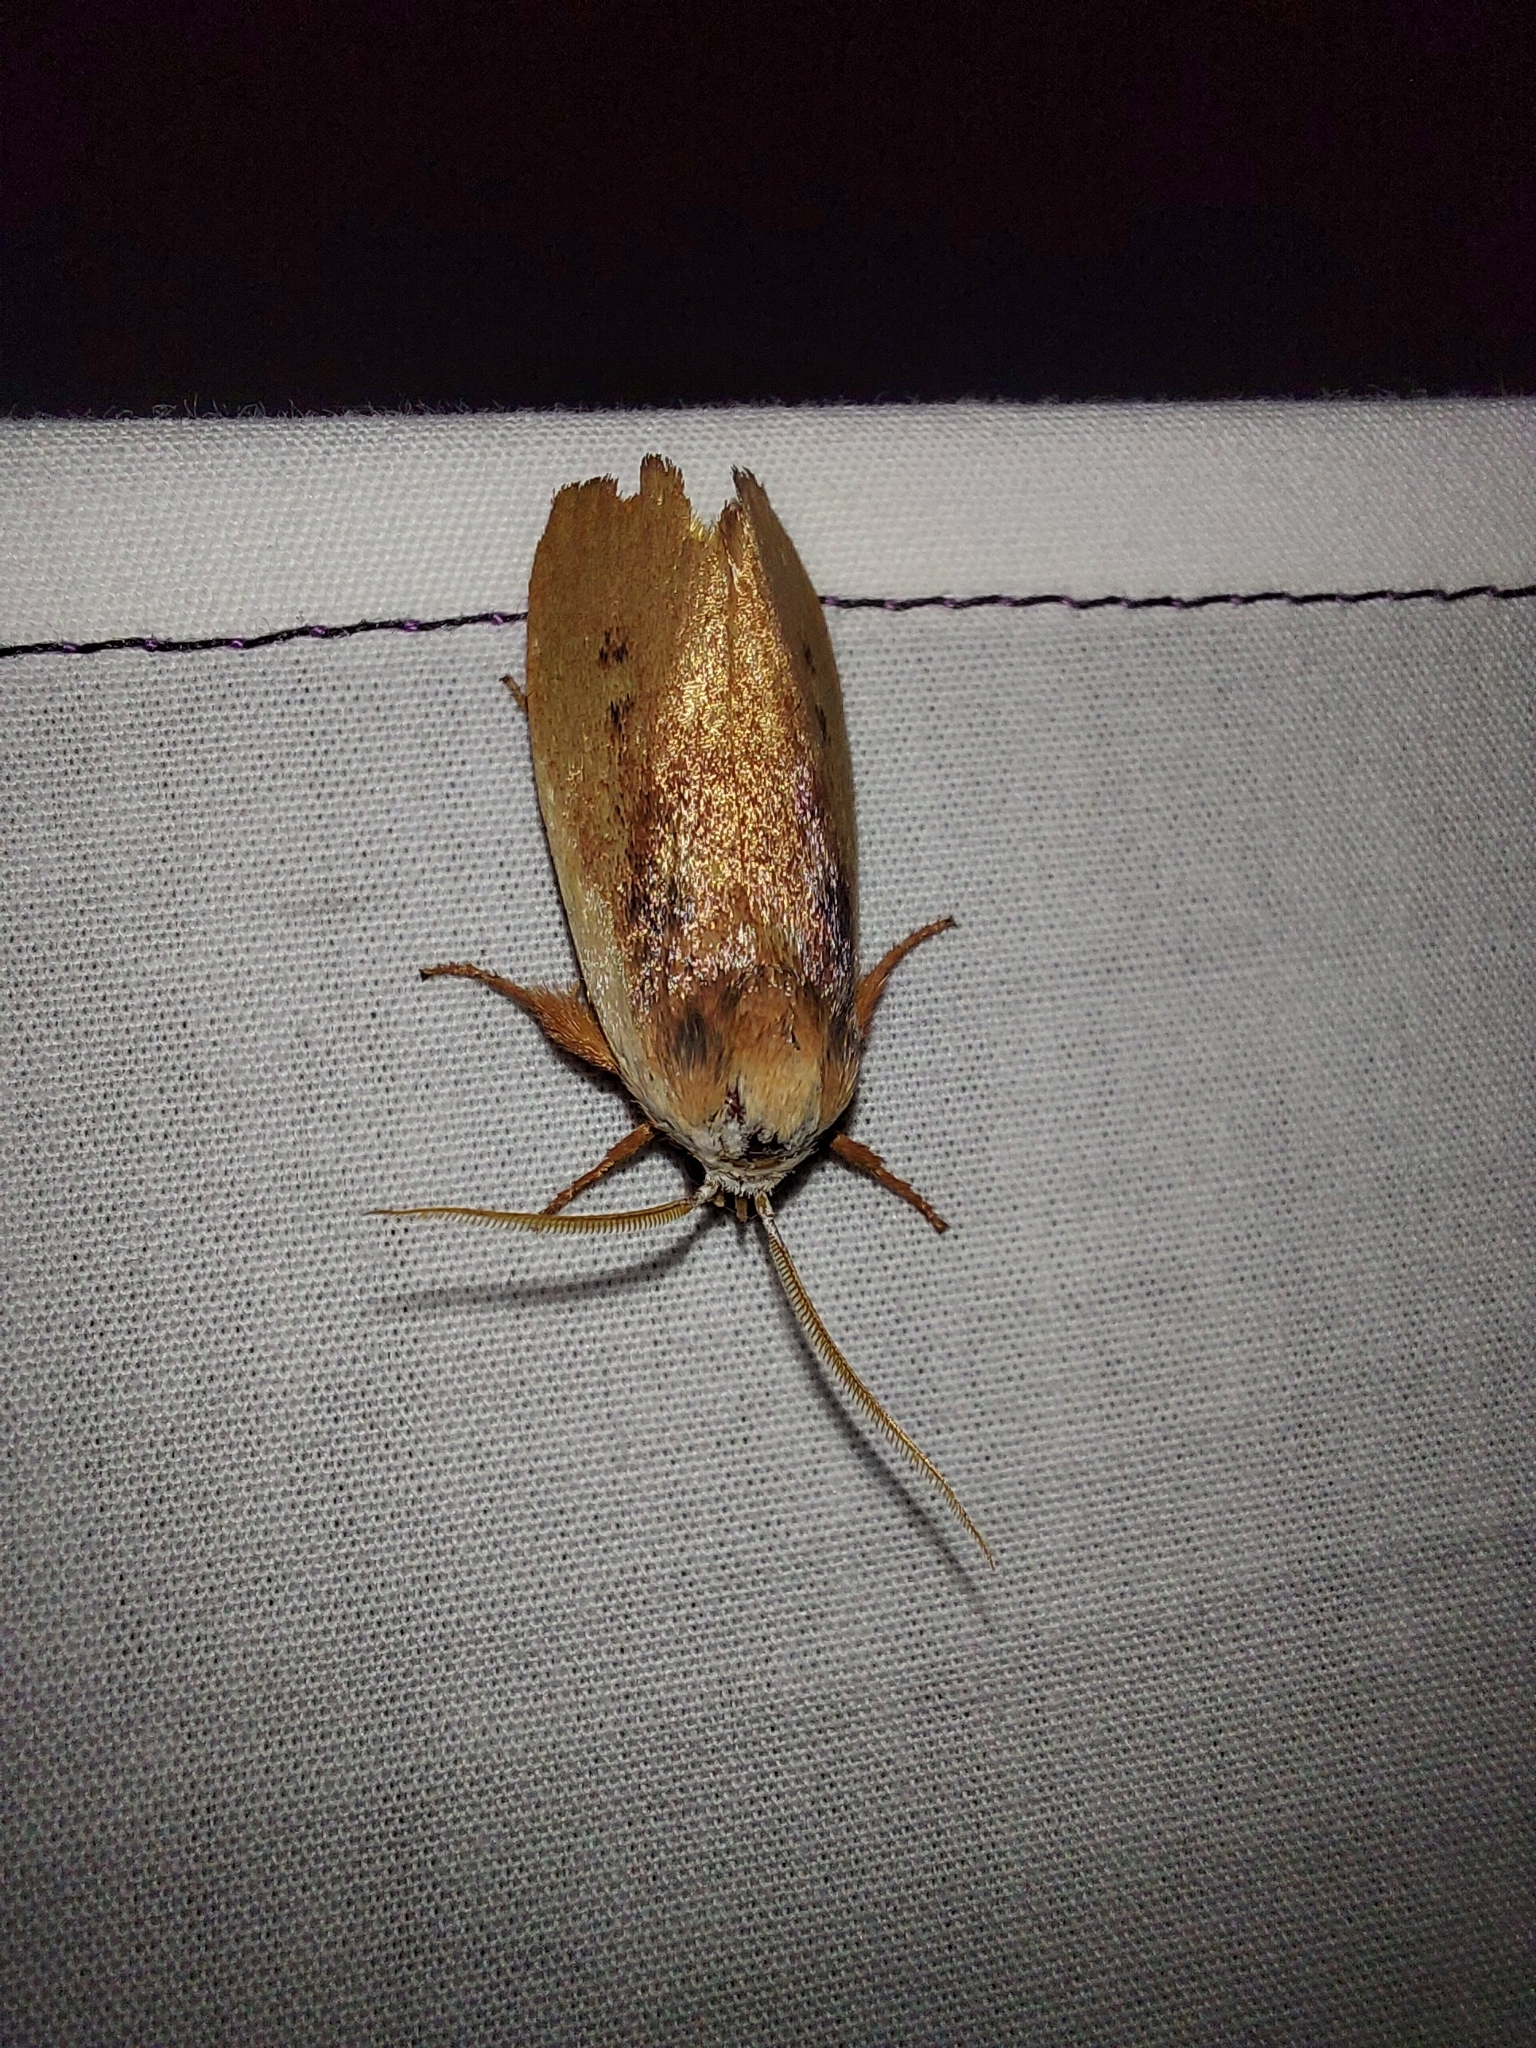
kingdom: Animalia
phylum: Arthropoda
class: Insecta
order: Lepidoptera
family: Xyloryctidae
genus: Cryptophasa
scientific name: Cryptophasa rubescens
